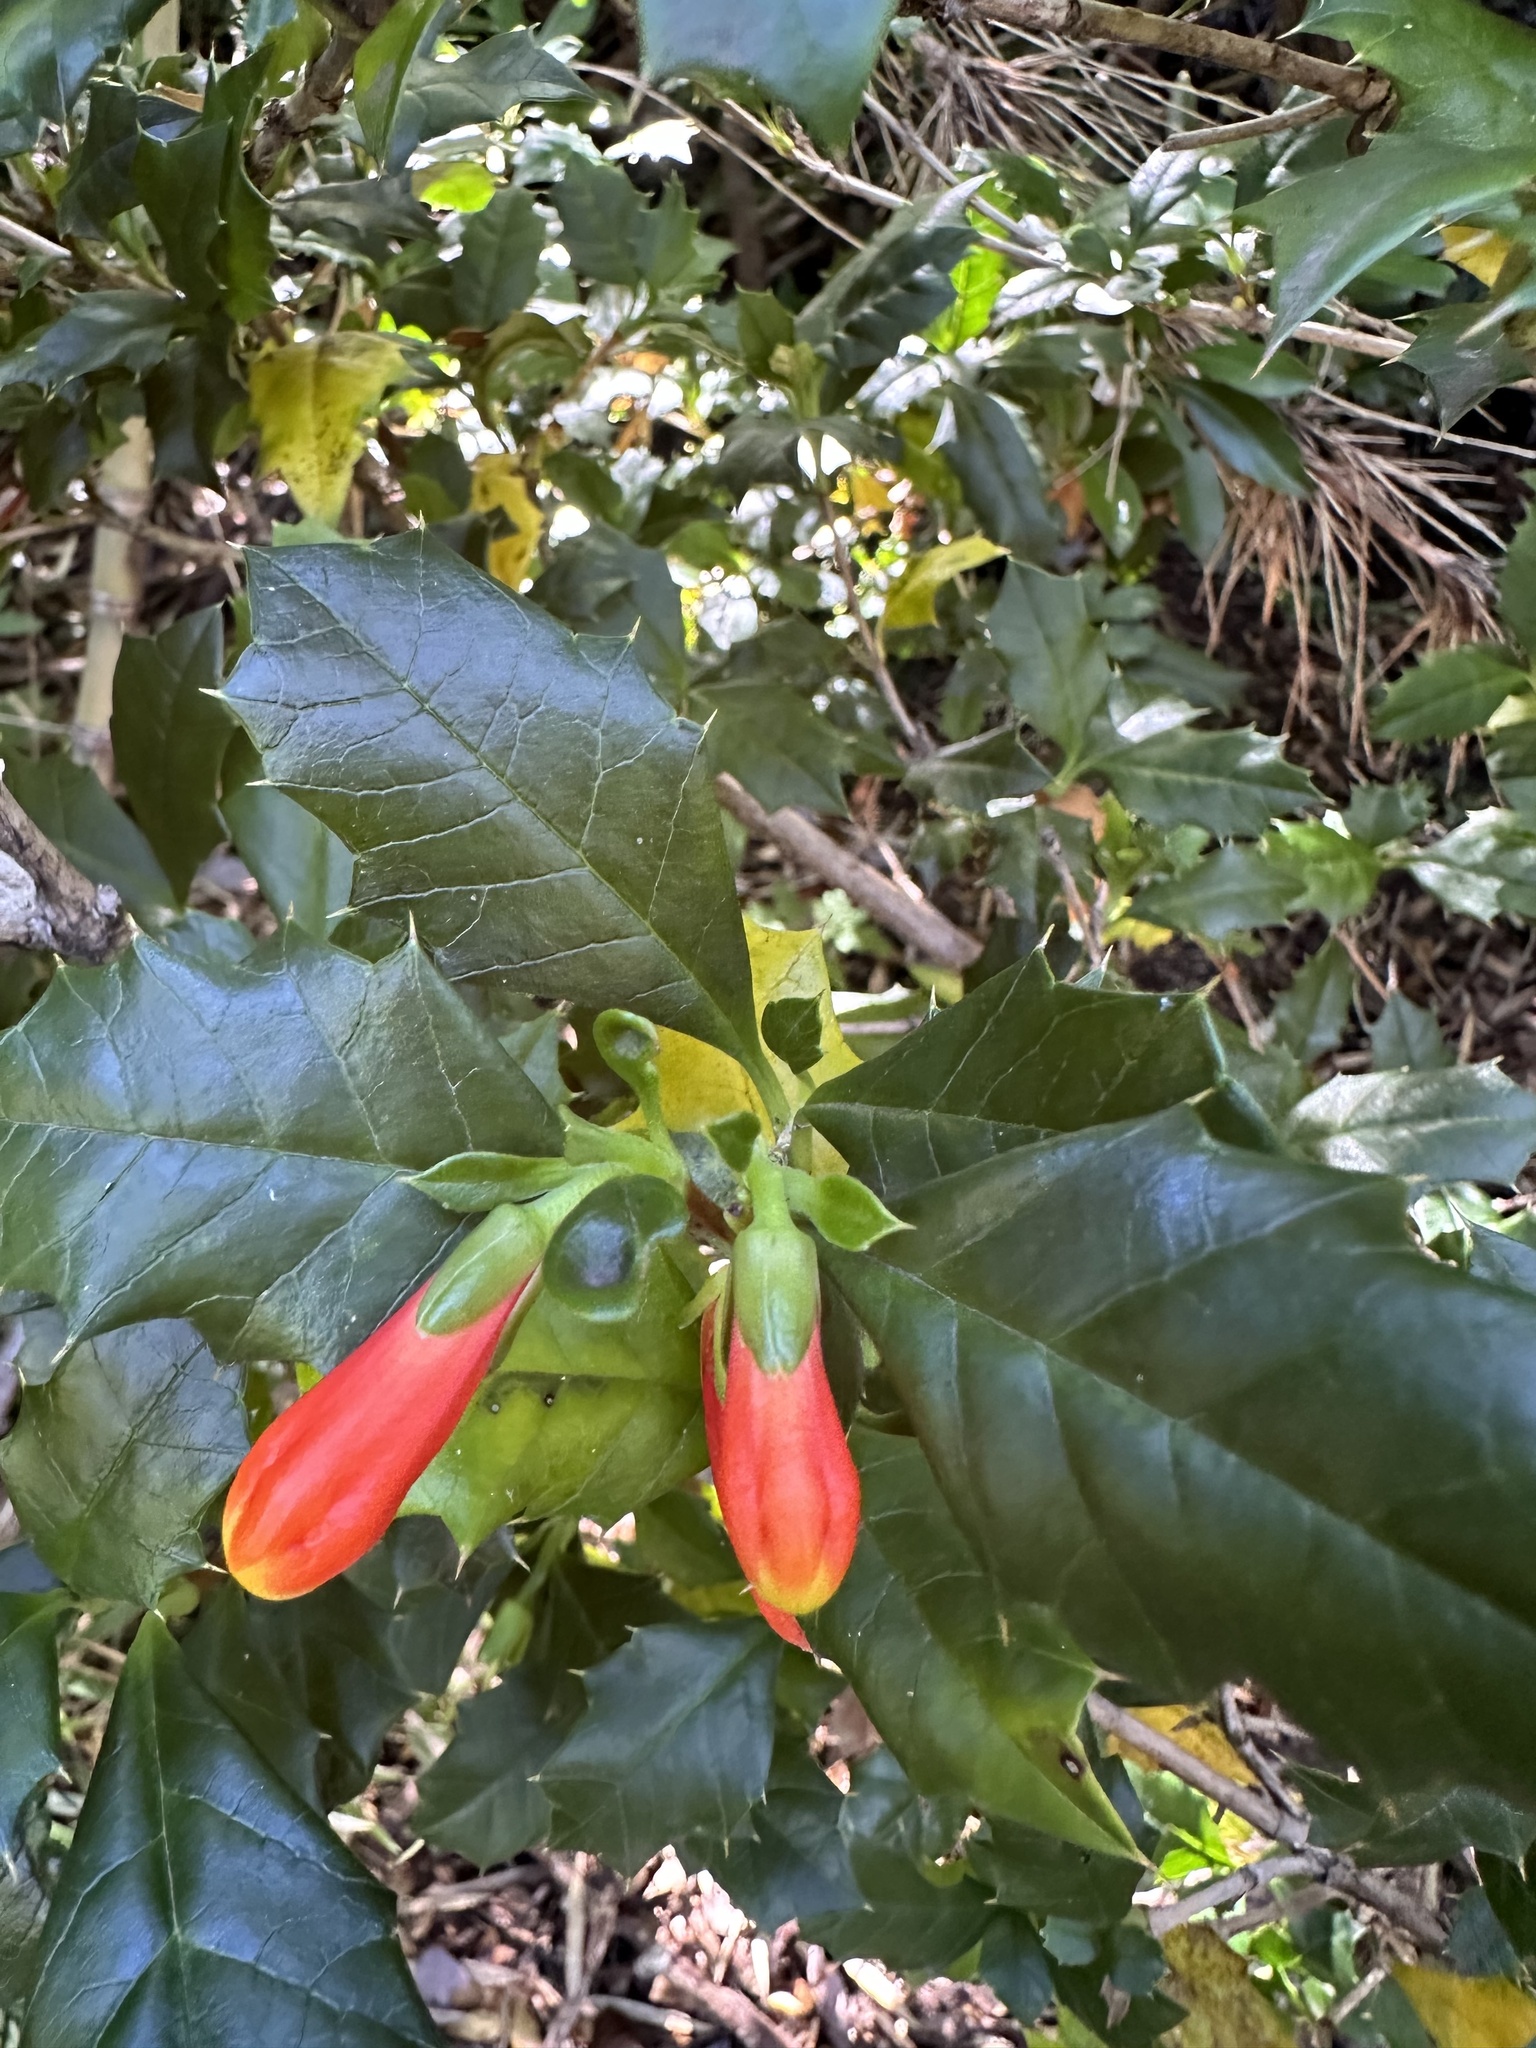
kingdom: Plantae
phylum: Tracheophyta
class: Magnoliopsida
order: Bruniales
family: Columelliaceae
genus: Desfontainia
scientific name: Desfontainia fulgens
